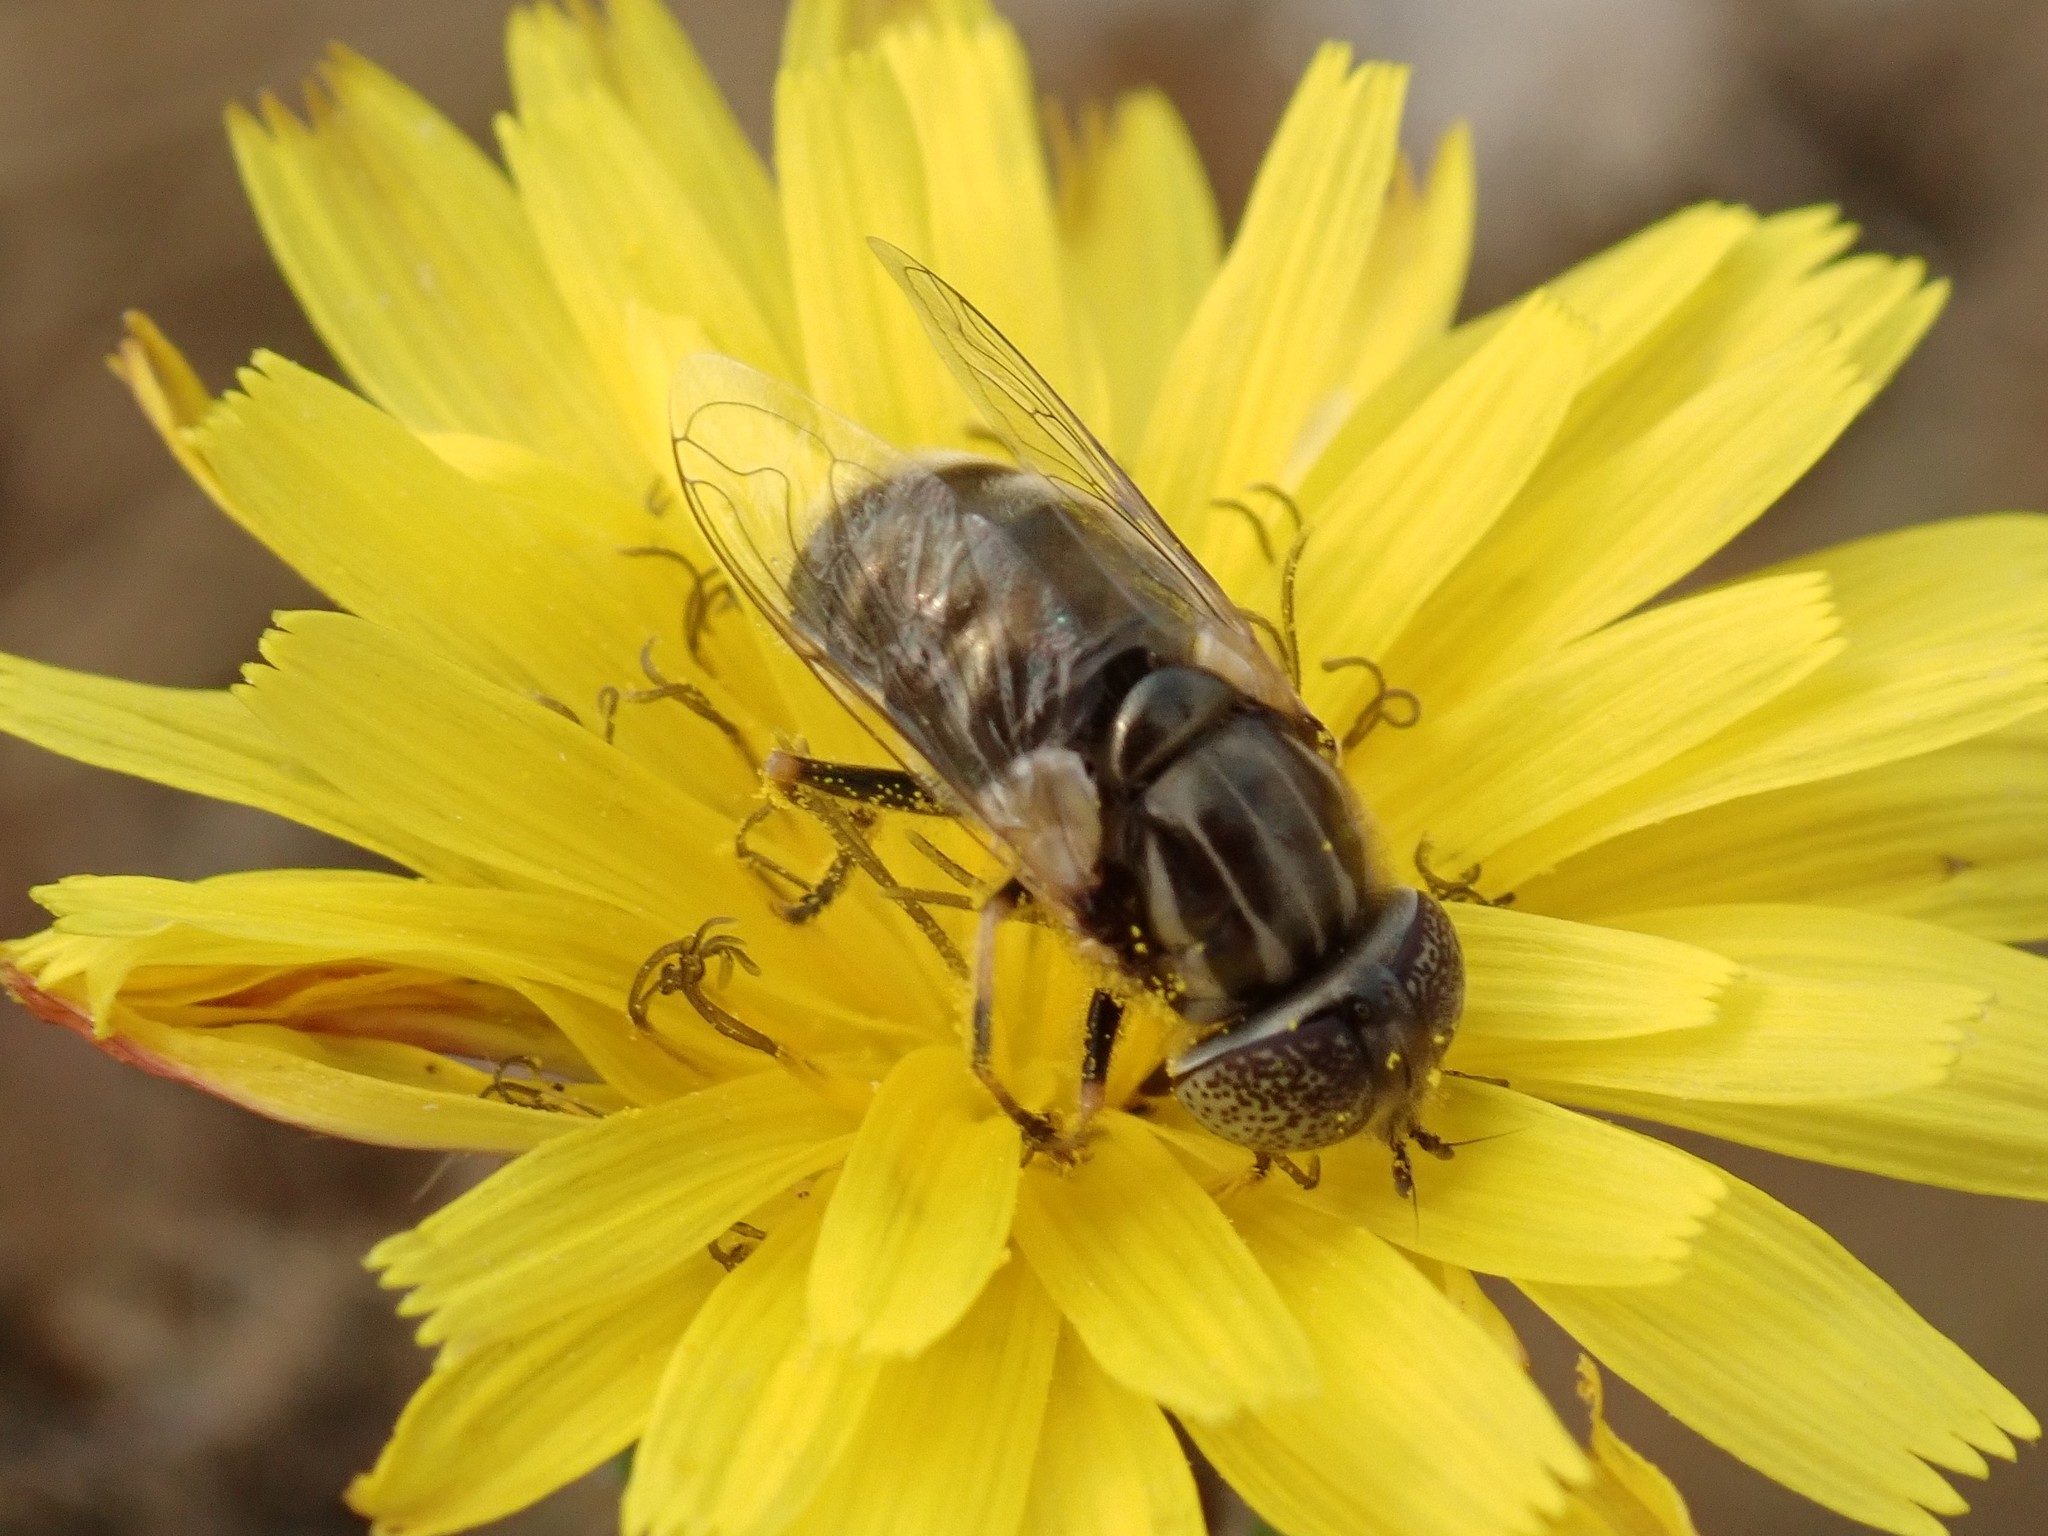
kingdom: Animalia
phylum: Arthropoda
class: Insecta
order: Diptera
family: Syrphidae
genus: Eristalinus
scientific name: Eristalinus aeneus
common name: Syrphid fly
